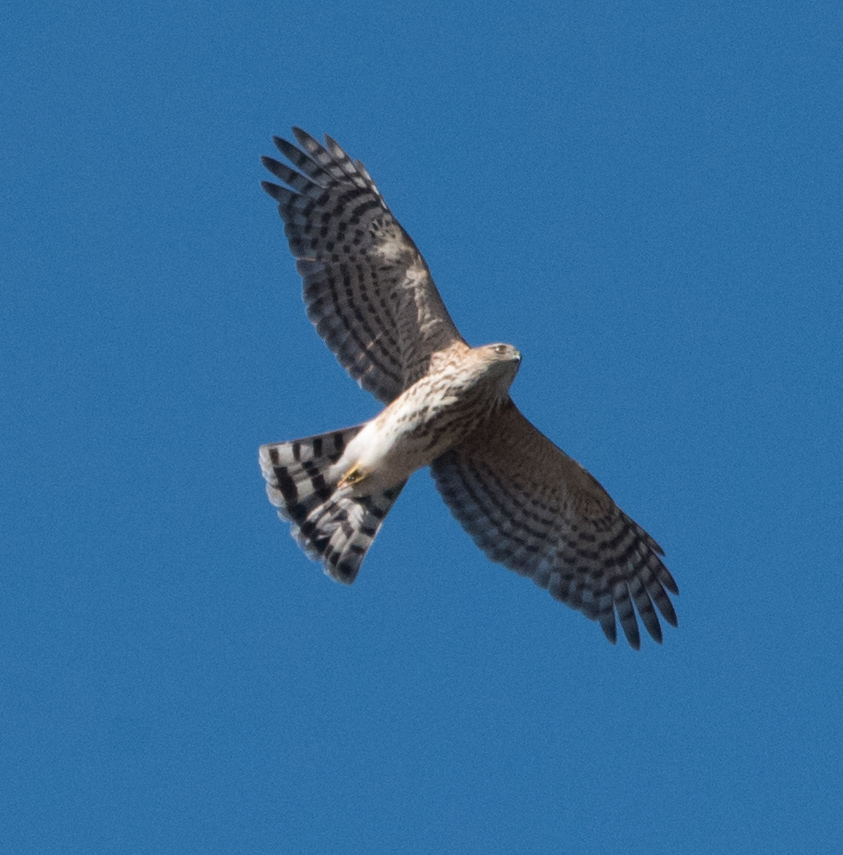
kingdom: Animalia
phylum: Chordata
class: Aves
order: Accipitriformes
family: Accipitridae
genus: Accipiter
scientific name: Accipiter striatus
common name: Sharp-shinned hawk
